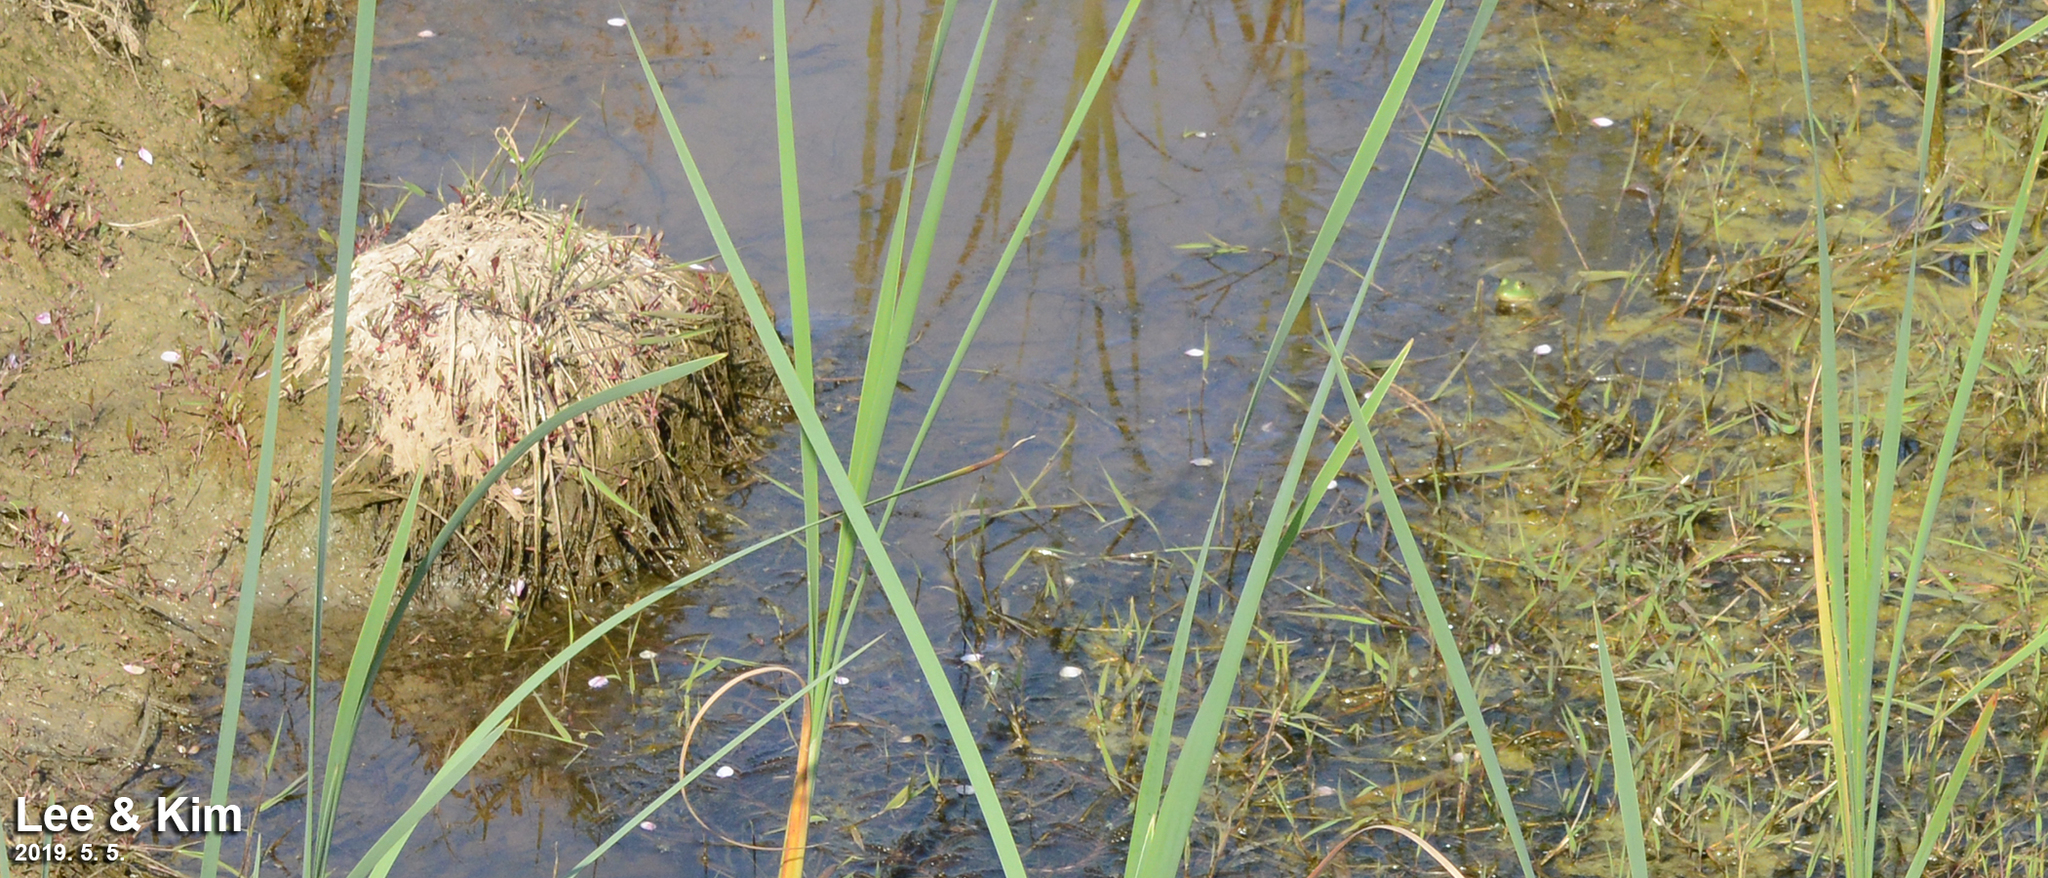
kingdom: Animalia
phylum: Chordata
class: Amphibia
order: Anura
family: Ranidae
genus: Lithobates
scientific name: Lithobates catesbeianus
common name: American bullfrog
